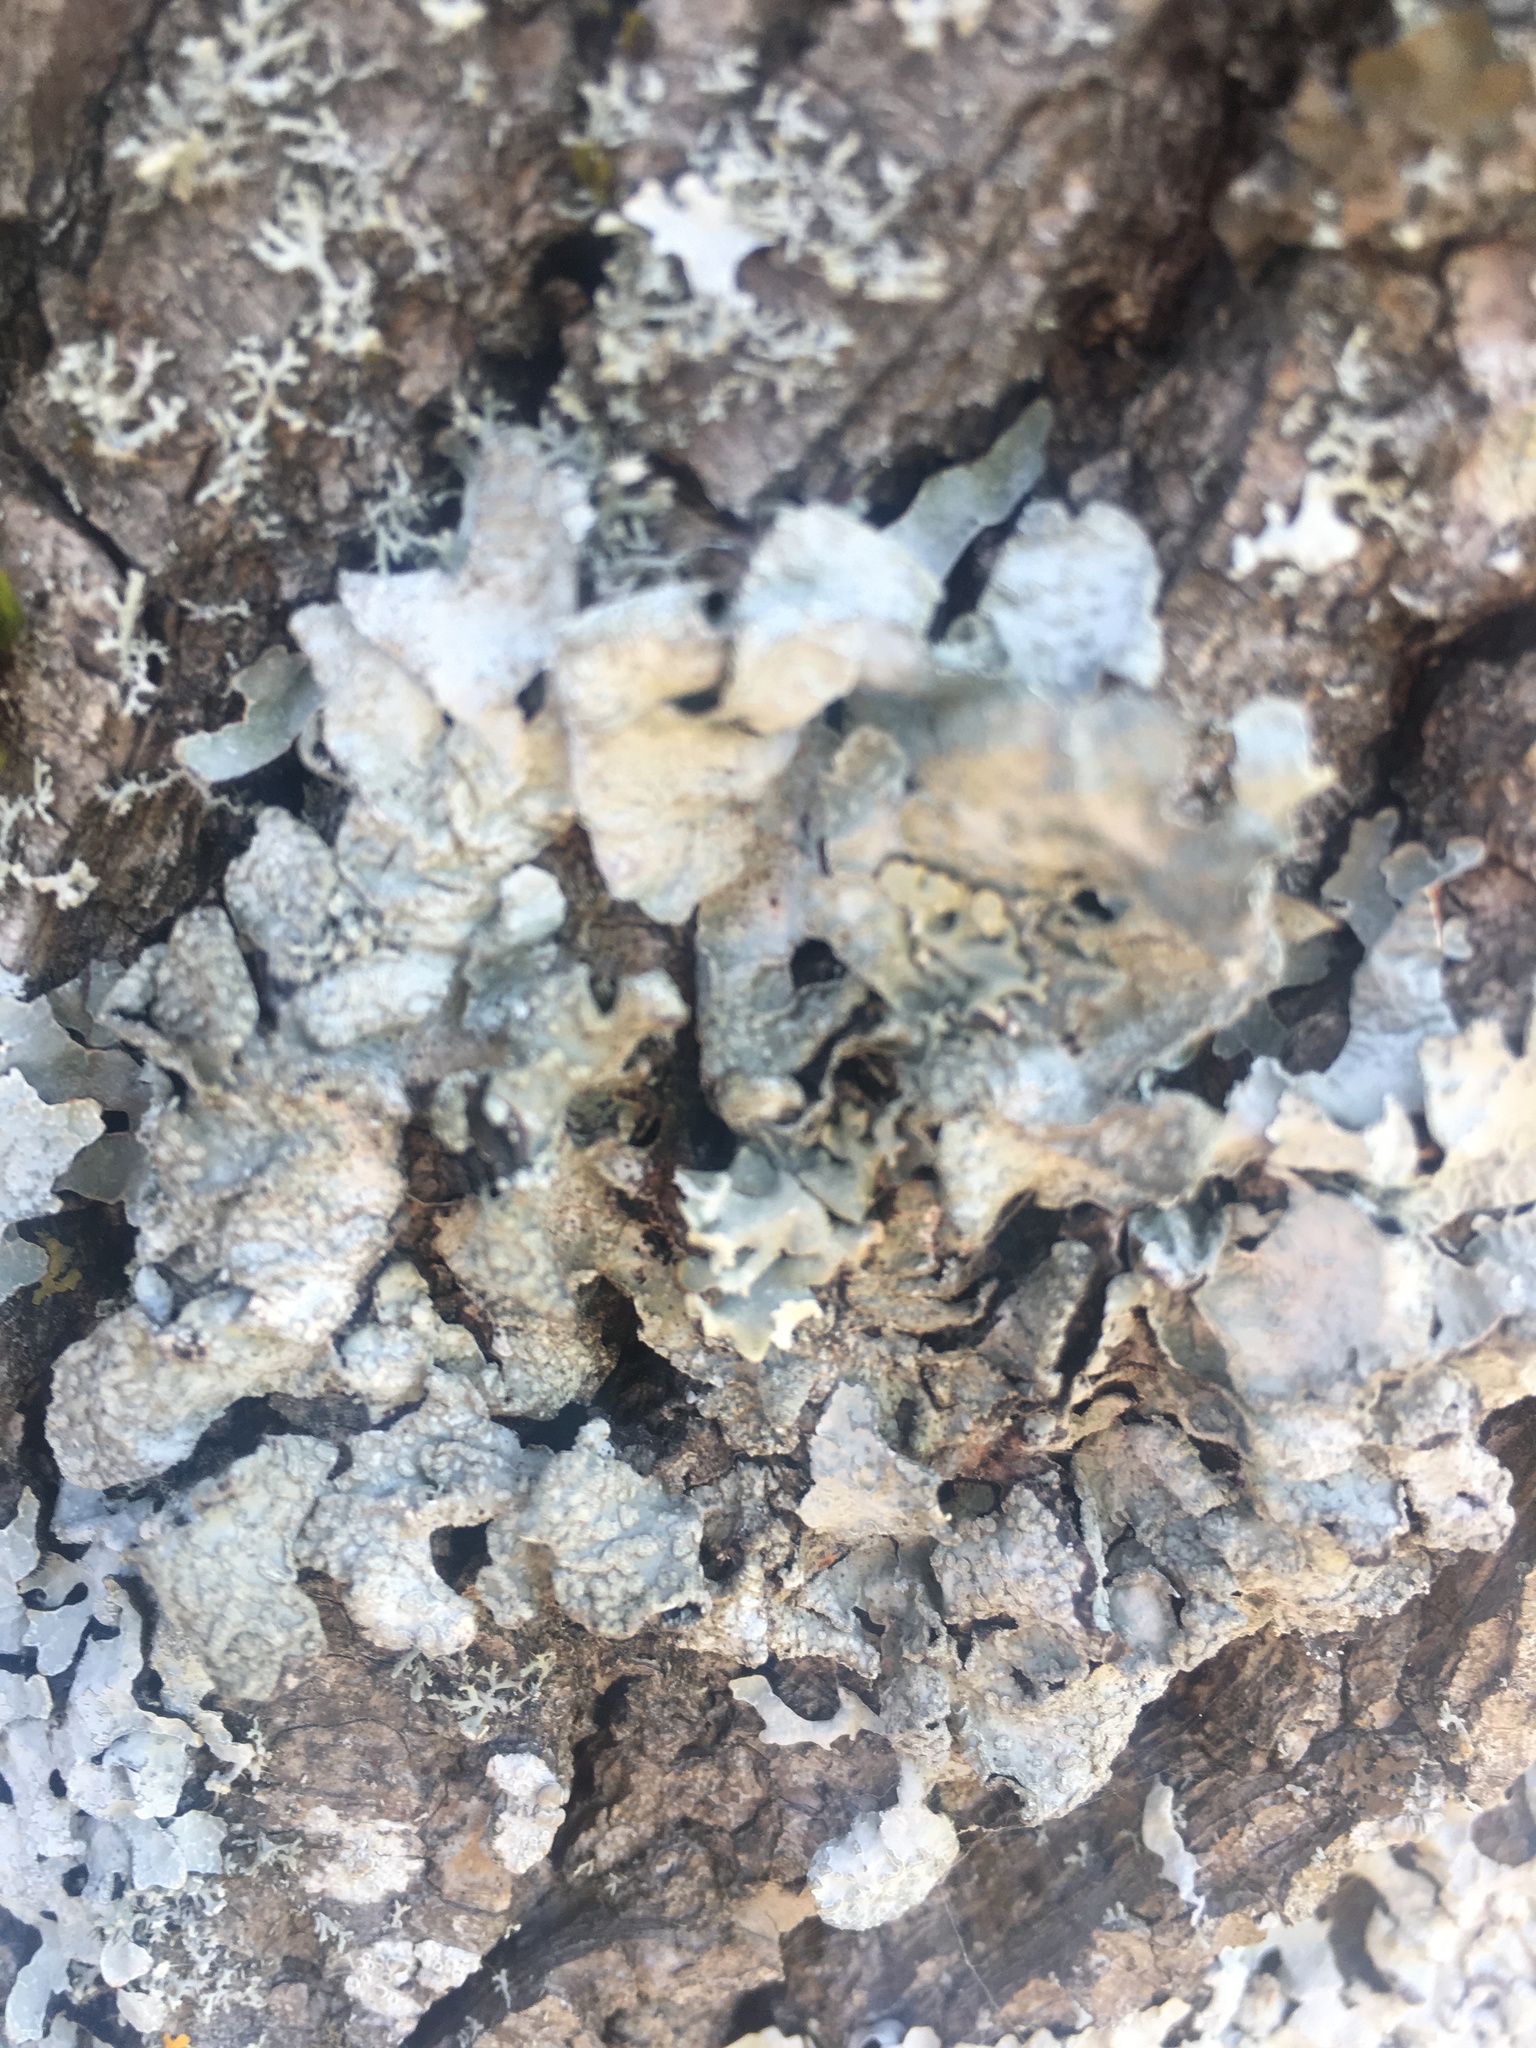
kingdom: Fungi
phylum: Ascomycota
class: Lecanoromycetes
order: Lecanorales
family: Parmeliaceae
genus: Parmelia
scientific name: Parmelia sulcata
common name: Netted shield lichen
